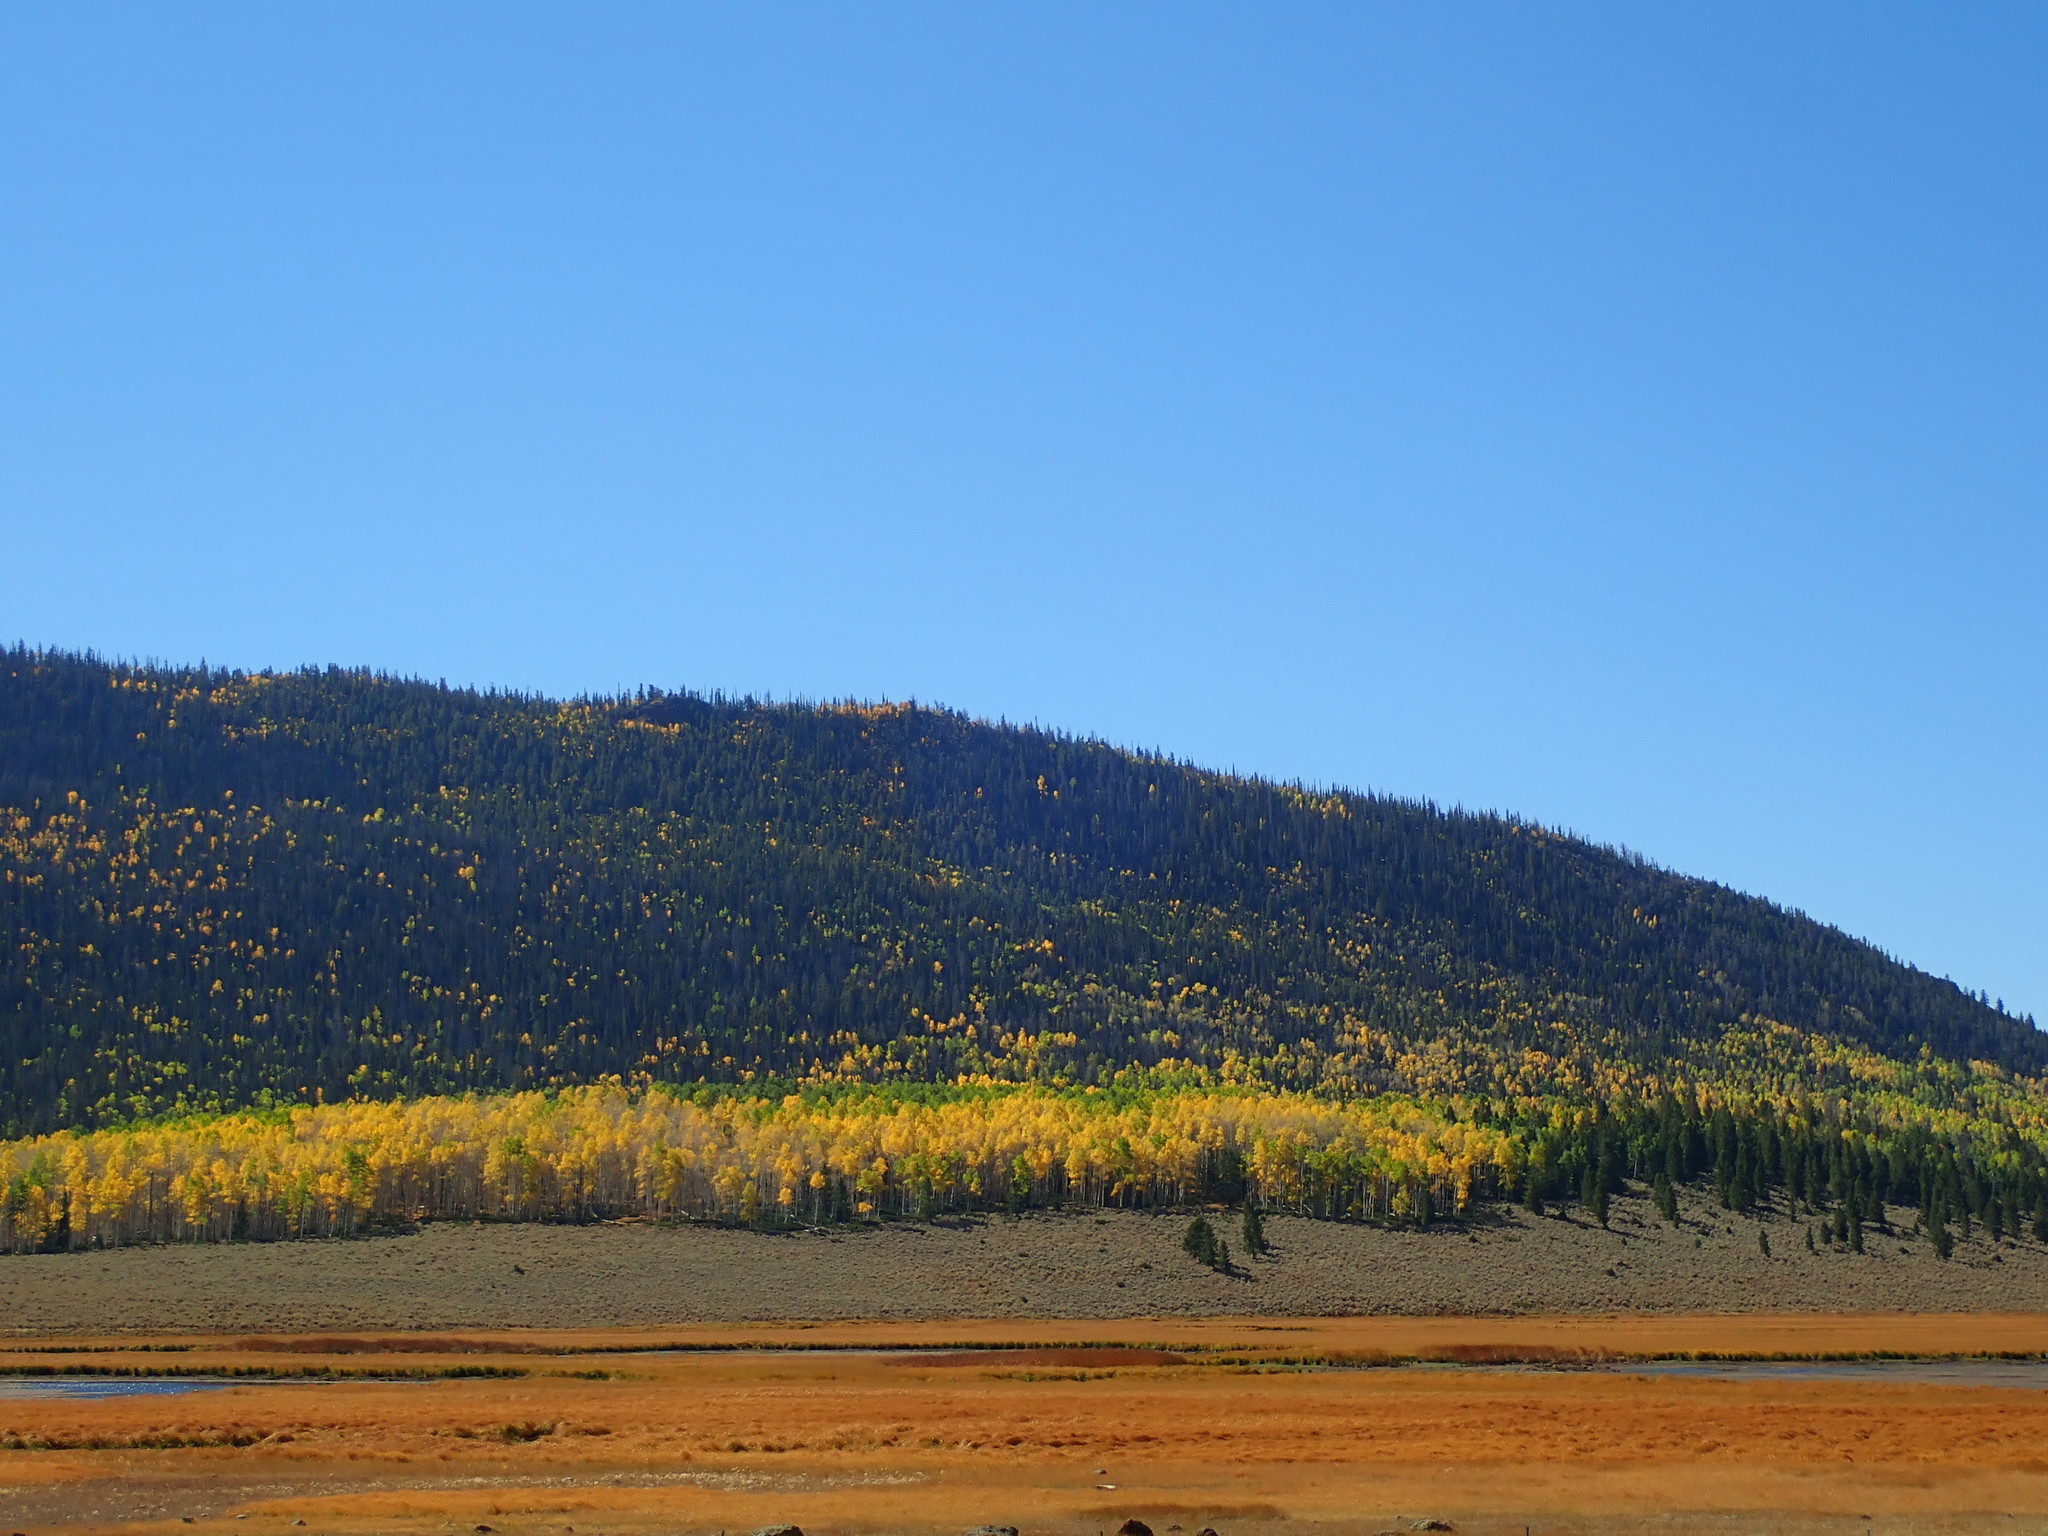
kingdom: Plantae
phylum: Tracheophyta
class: Magnoliopsida
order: Malpighiales
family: Salicaceae
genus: Populus
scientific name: Populus tremuloides
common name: Quaking aspen
